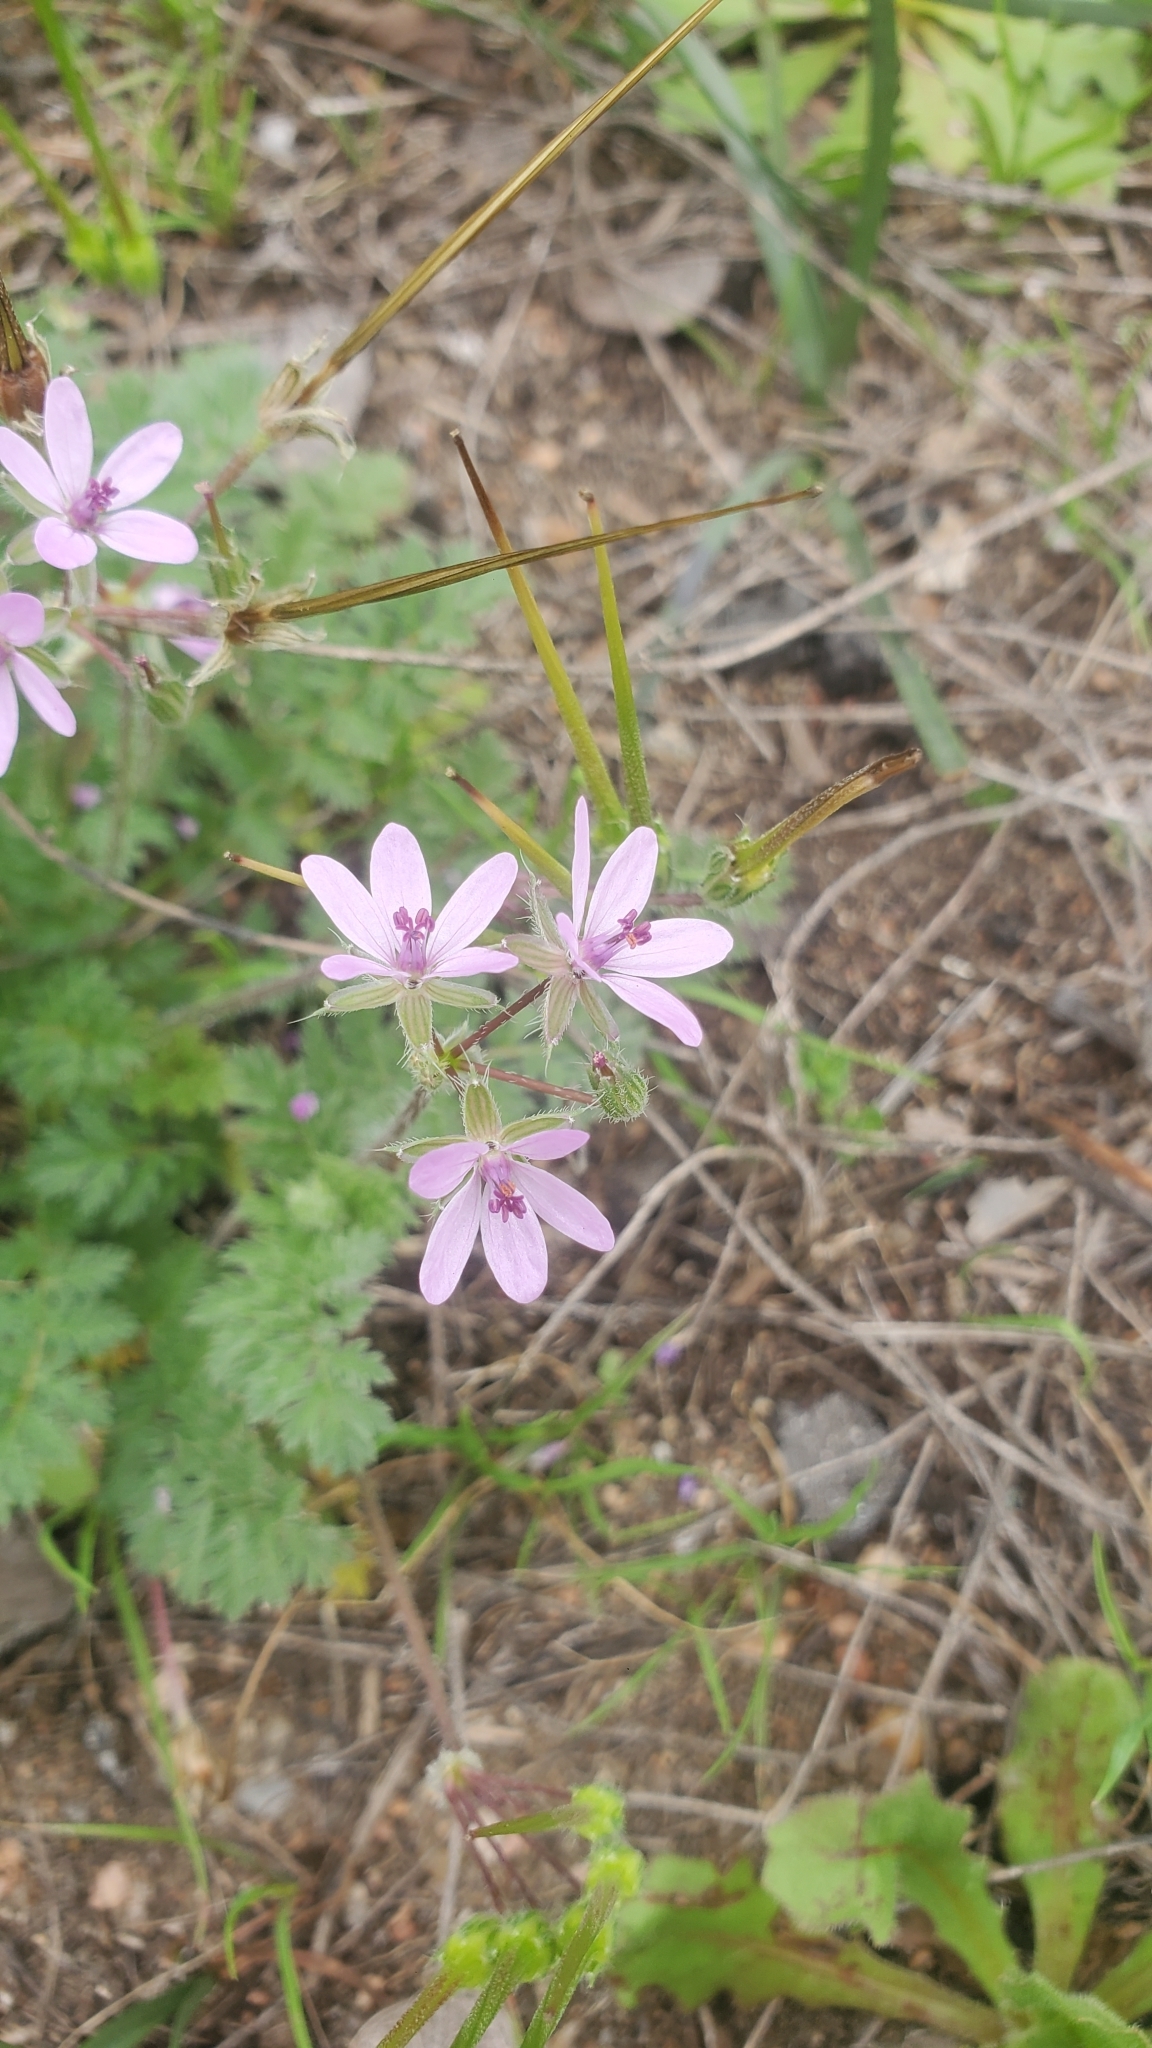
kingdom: Plantae
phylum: Tracheophyta
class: Magnoliopsida
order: Geraniales
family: Geraniaceae
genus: Erodium
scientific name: Erodium cicutarium
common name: Common stork's-bill
